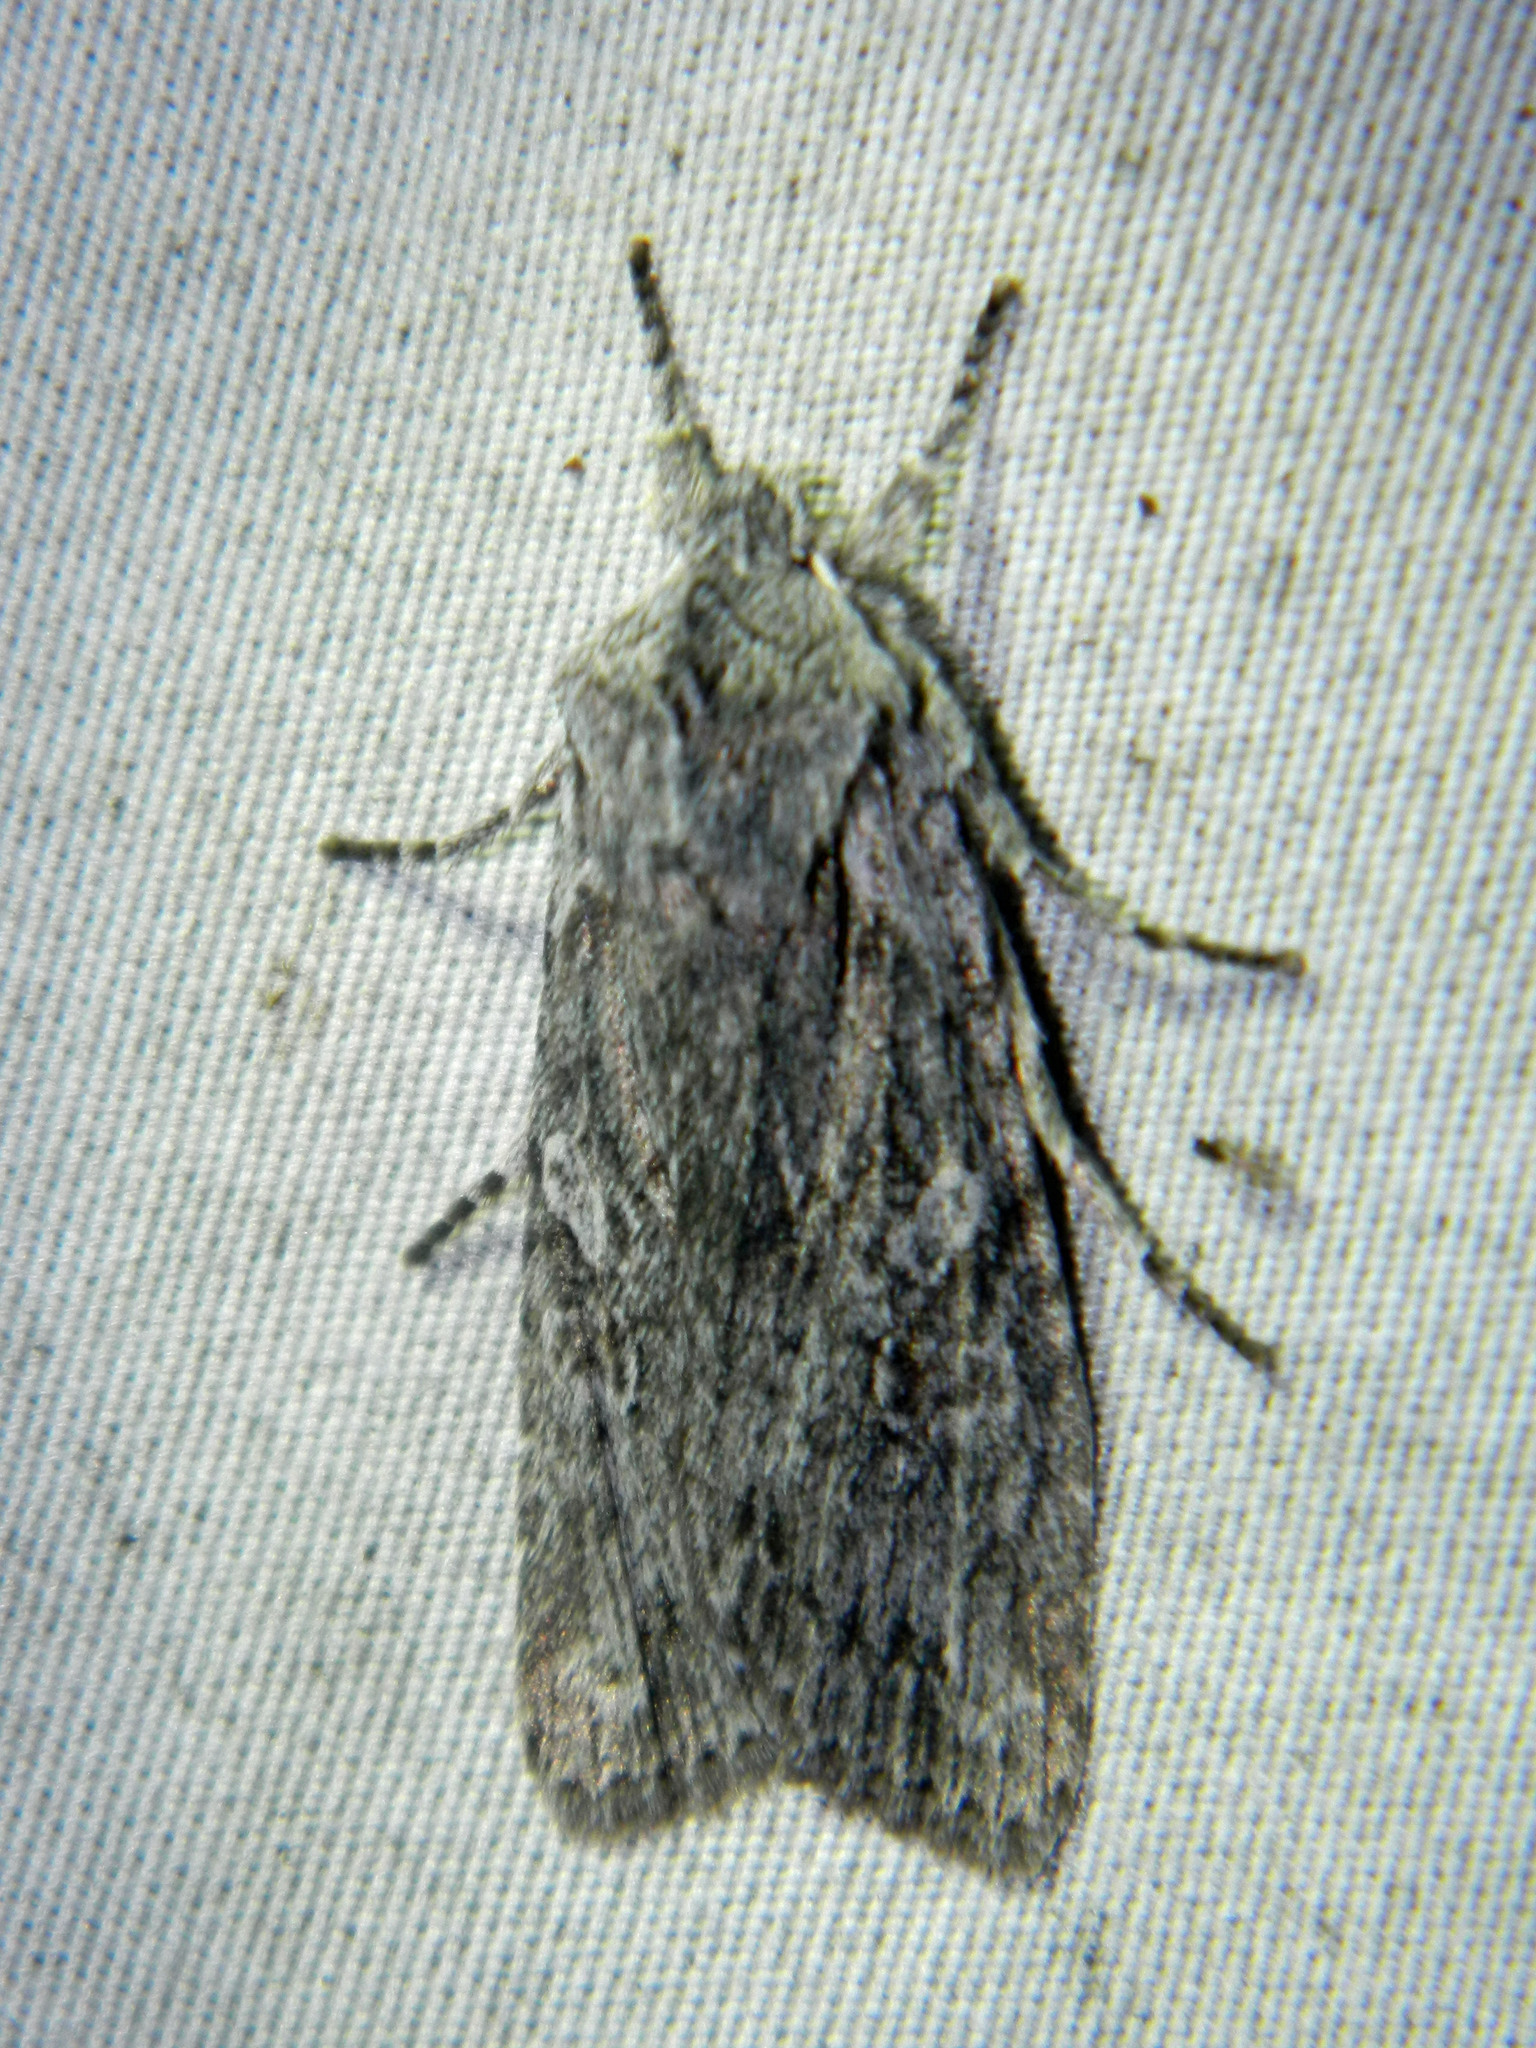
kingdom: Animalia
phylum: Arthropoda
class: Insecta
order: Lepidoptera
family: Noctuidae
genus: Lithophane
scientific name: Lithophane georgii
